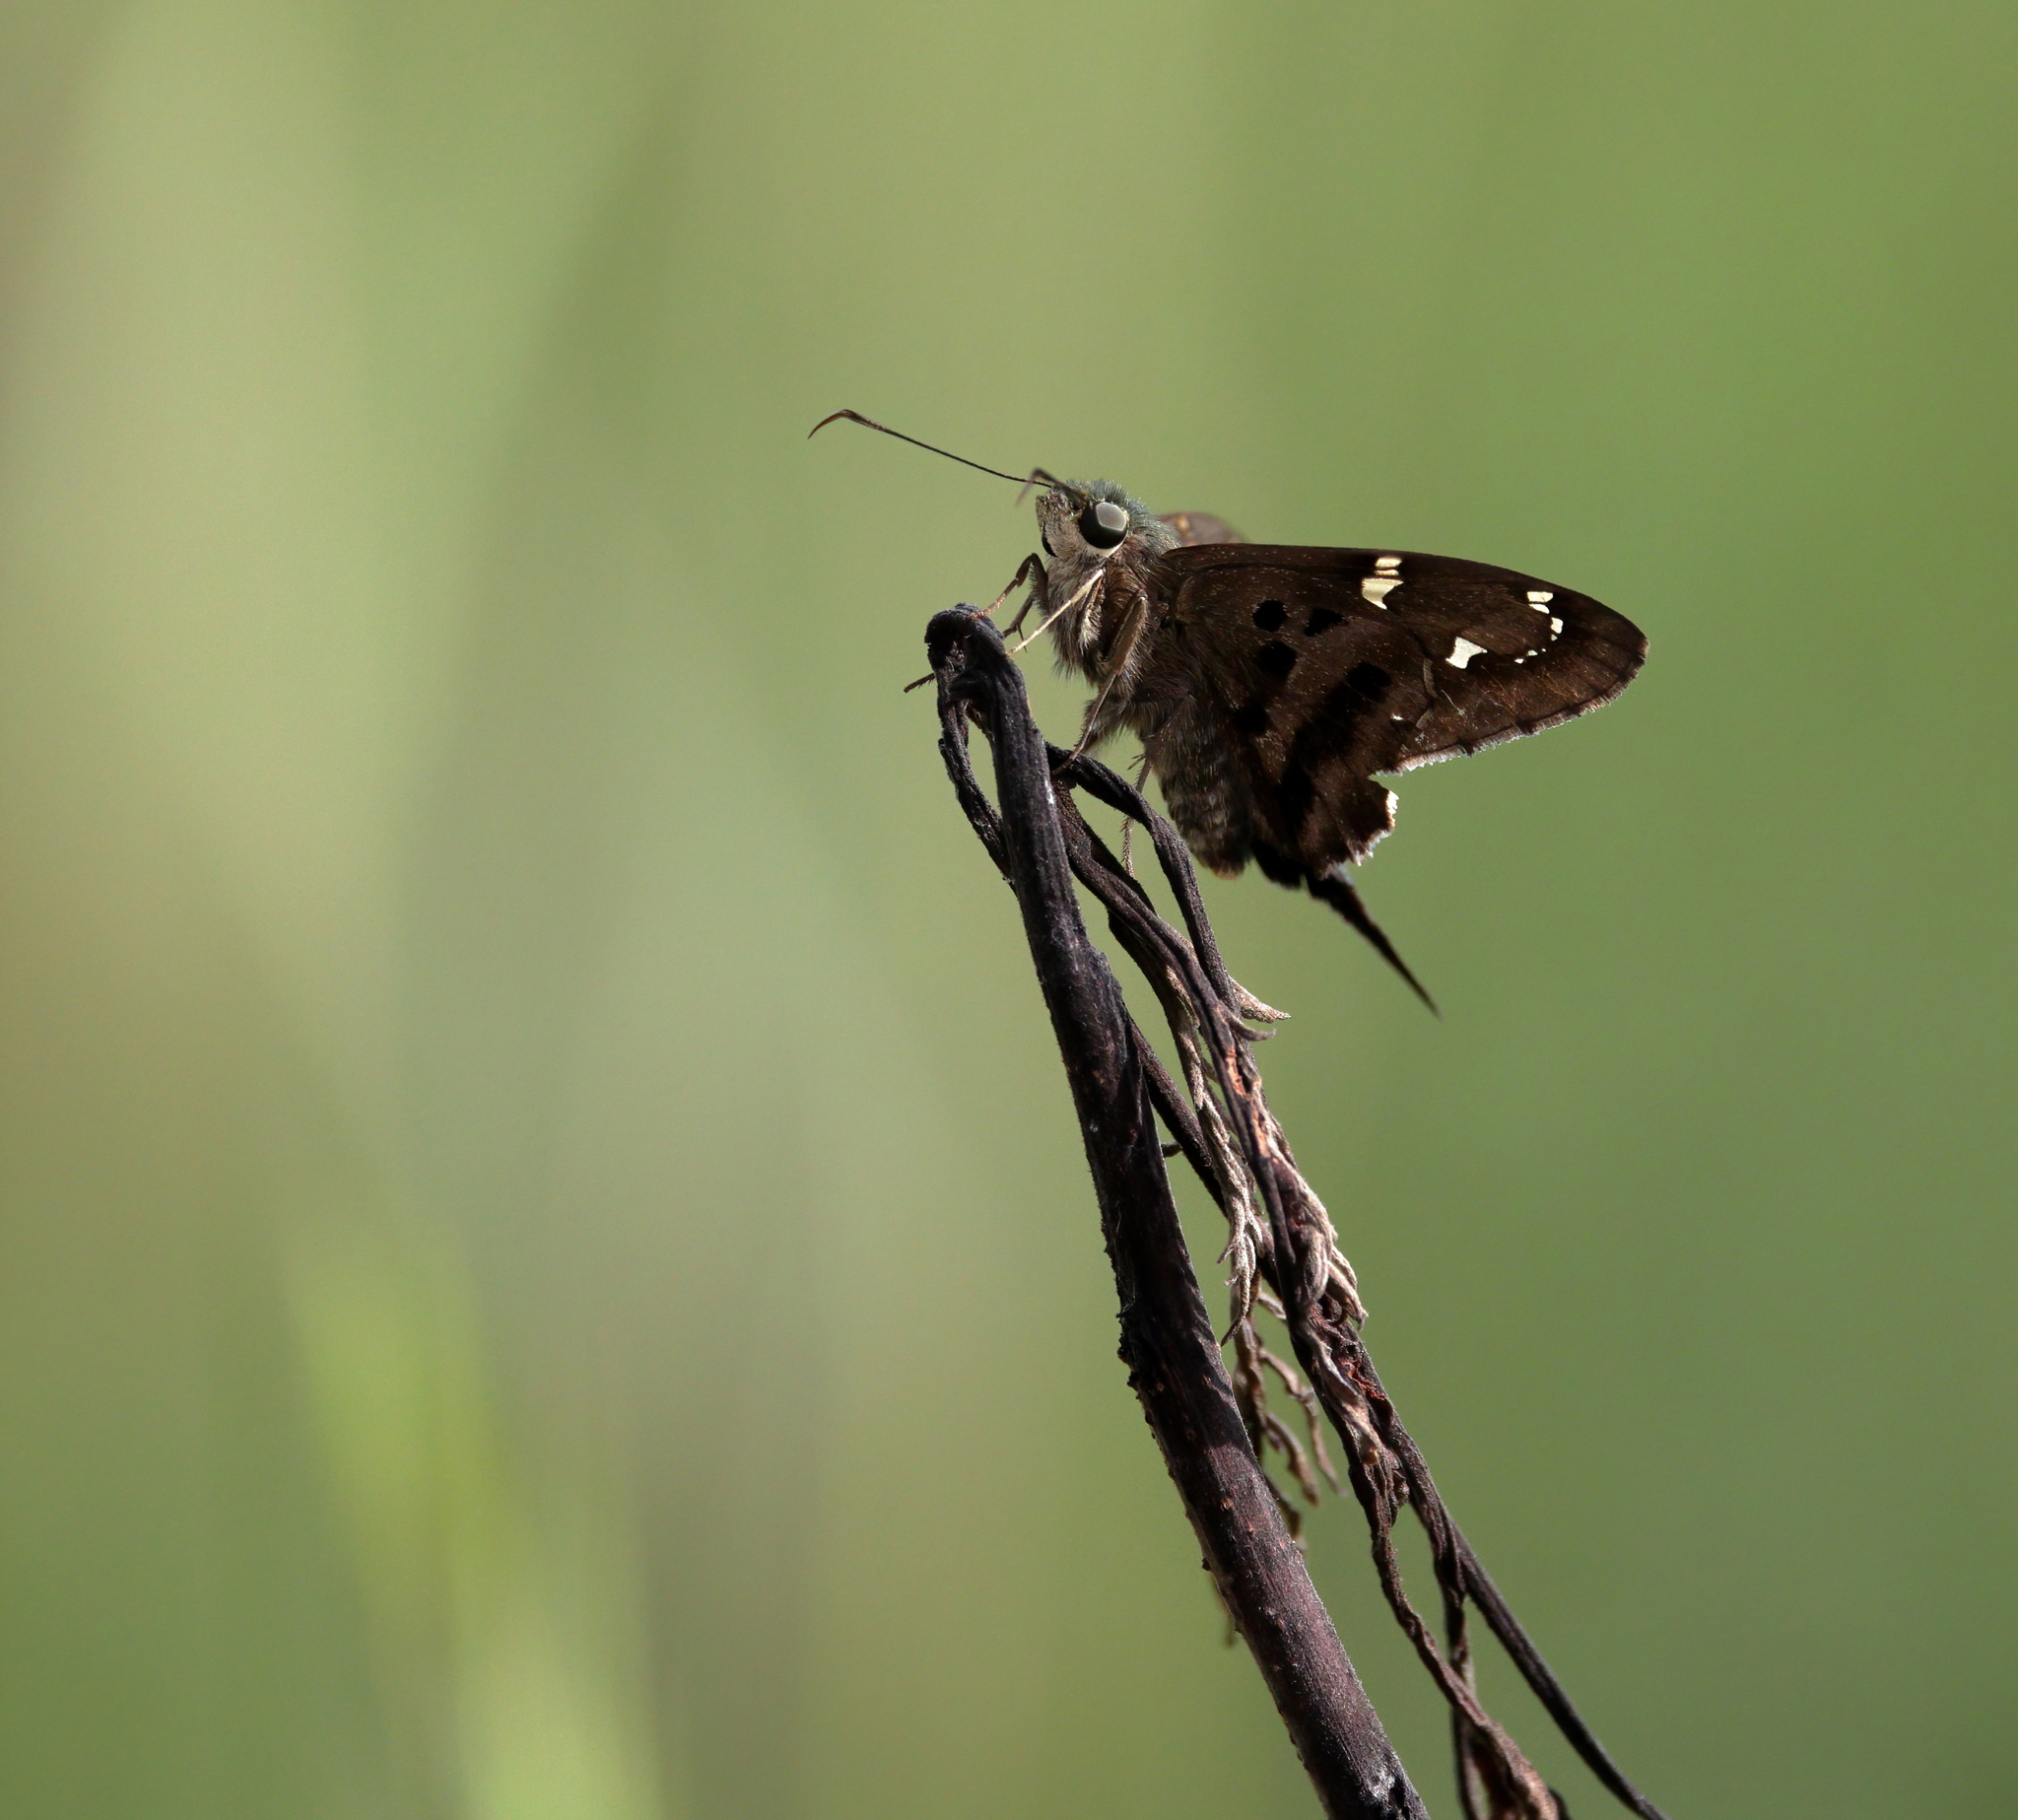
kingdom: Animalia
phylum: Arthropoda
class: Insecta
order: Lepidoptera
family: Hesperiidae
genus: Urbanus
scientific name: Urbanus proteus
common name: Long-tailed skipper
